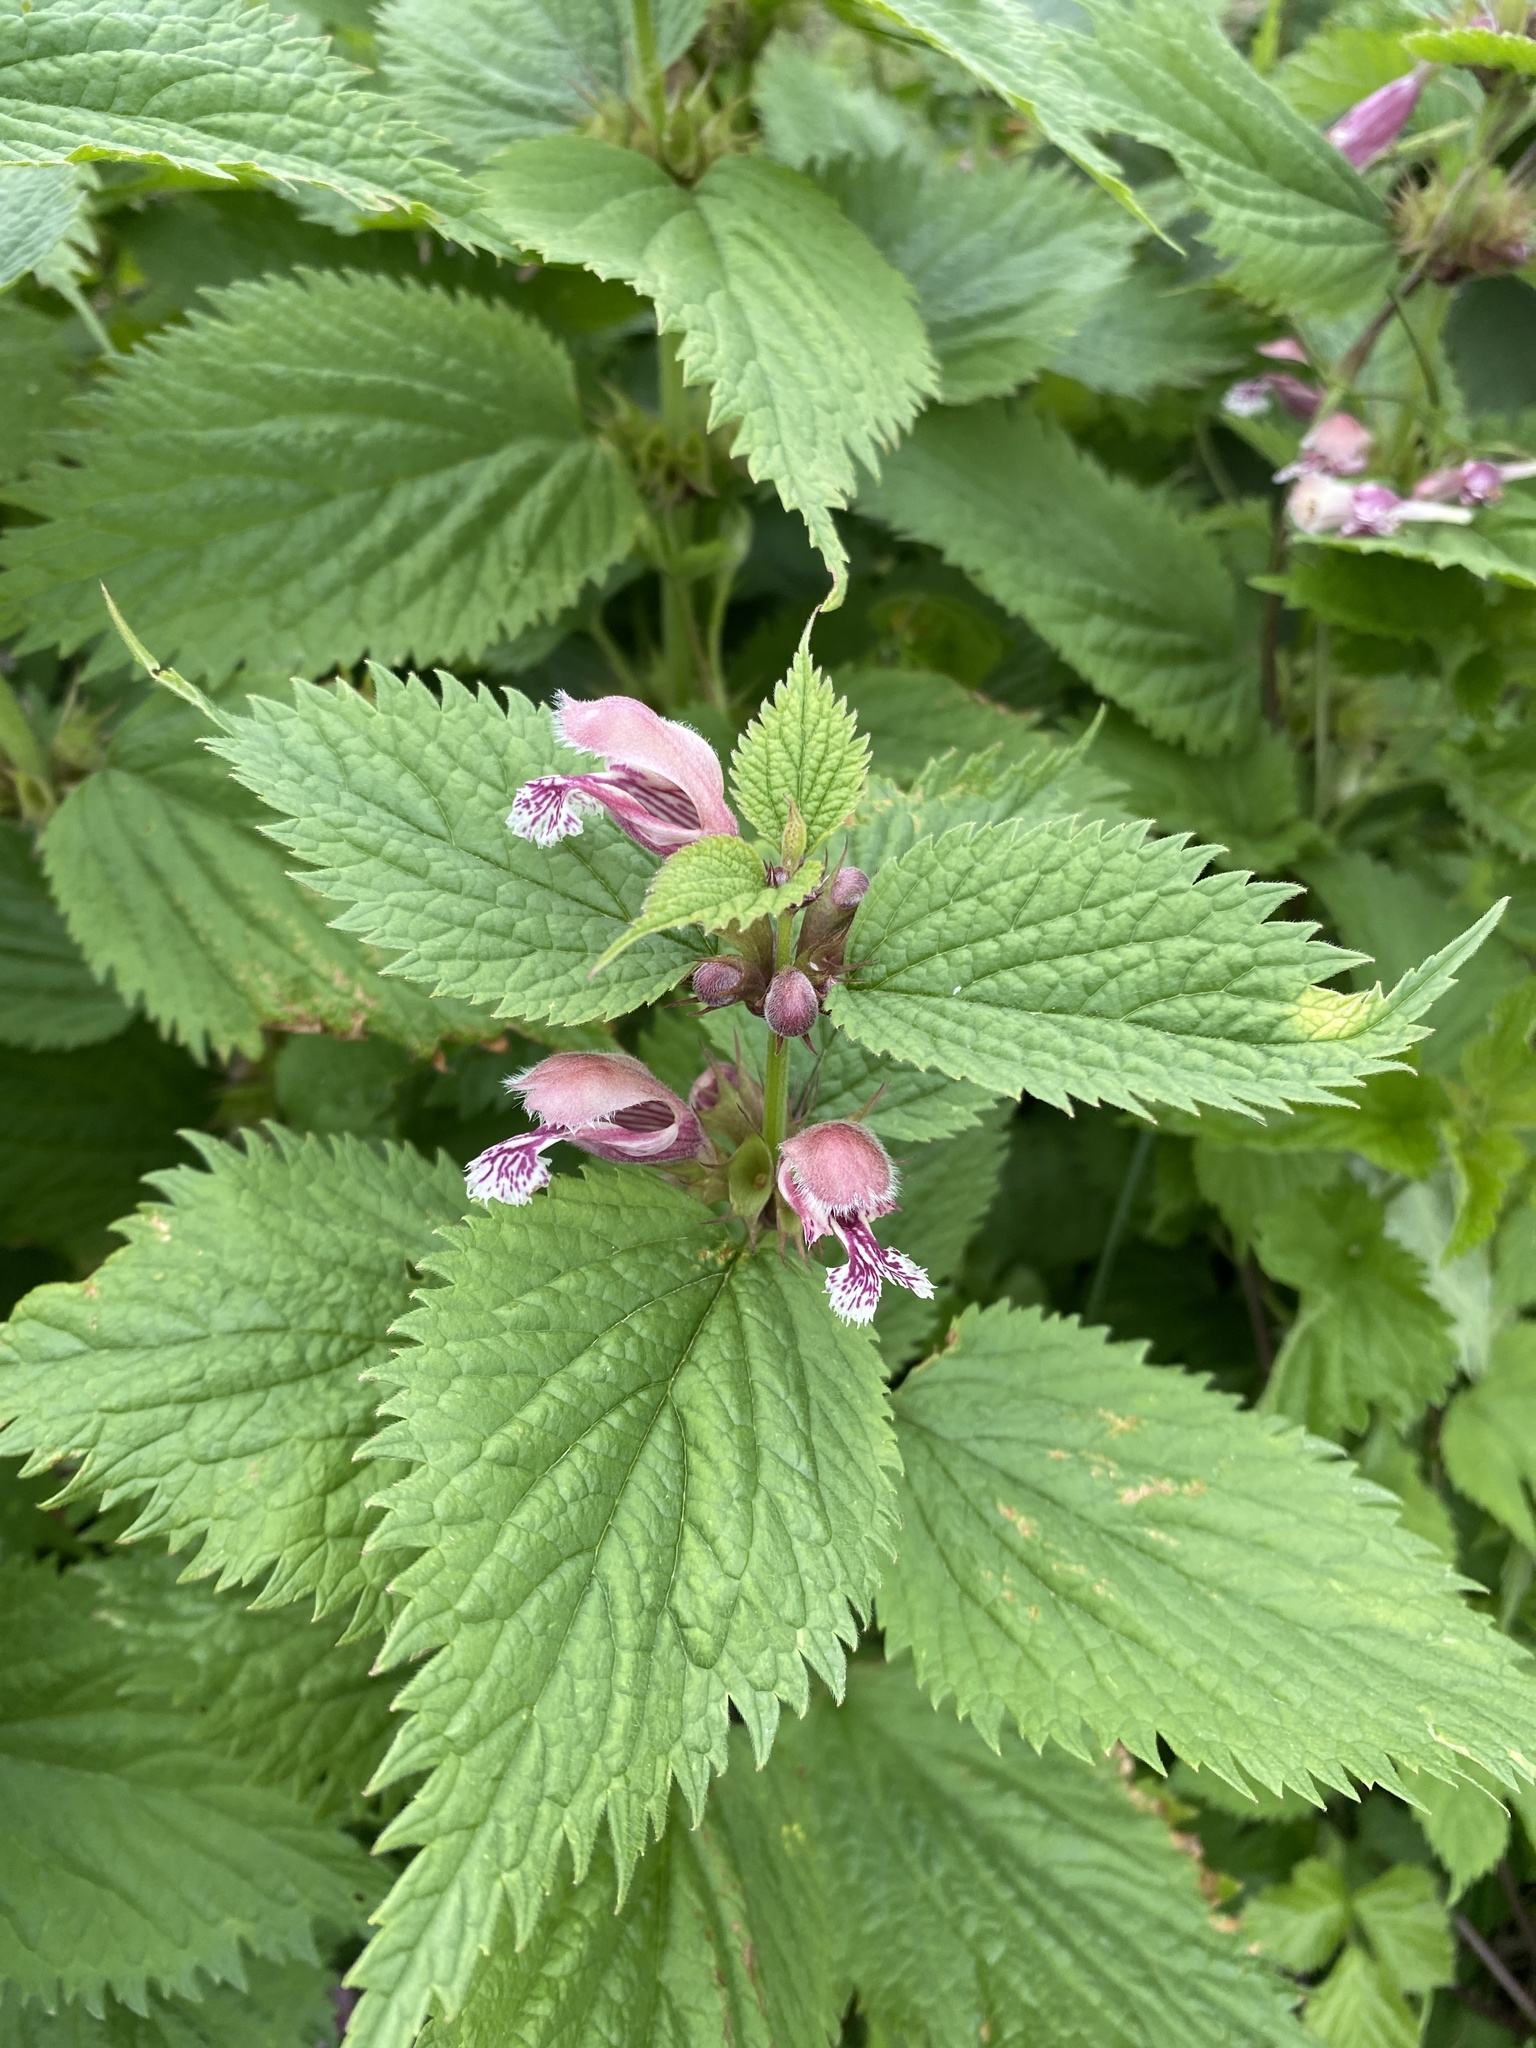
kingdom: Plantae
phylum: Tracheophyta
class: Magnoliopsida
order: Lamiales
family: Lamiaceae
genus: Lamium
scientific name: Lamium orvala
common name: Balm-leaved archangel
